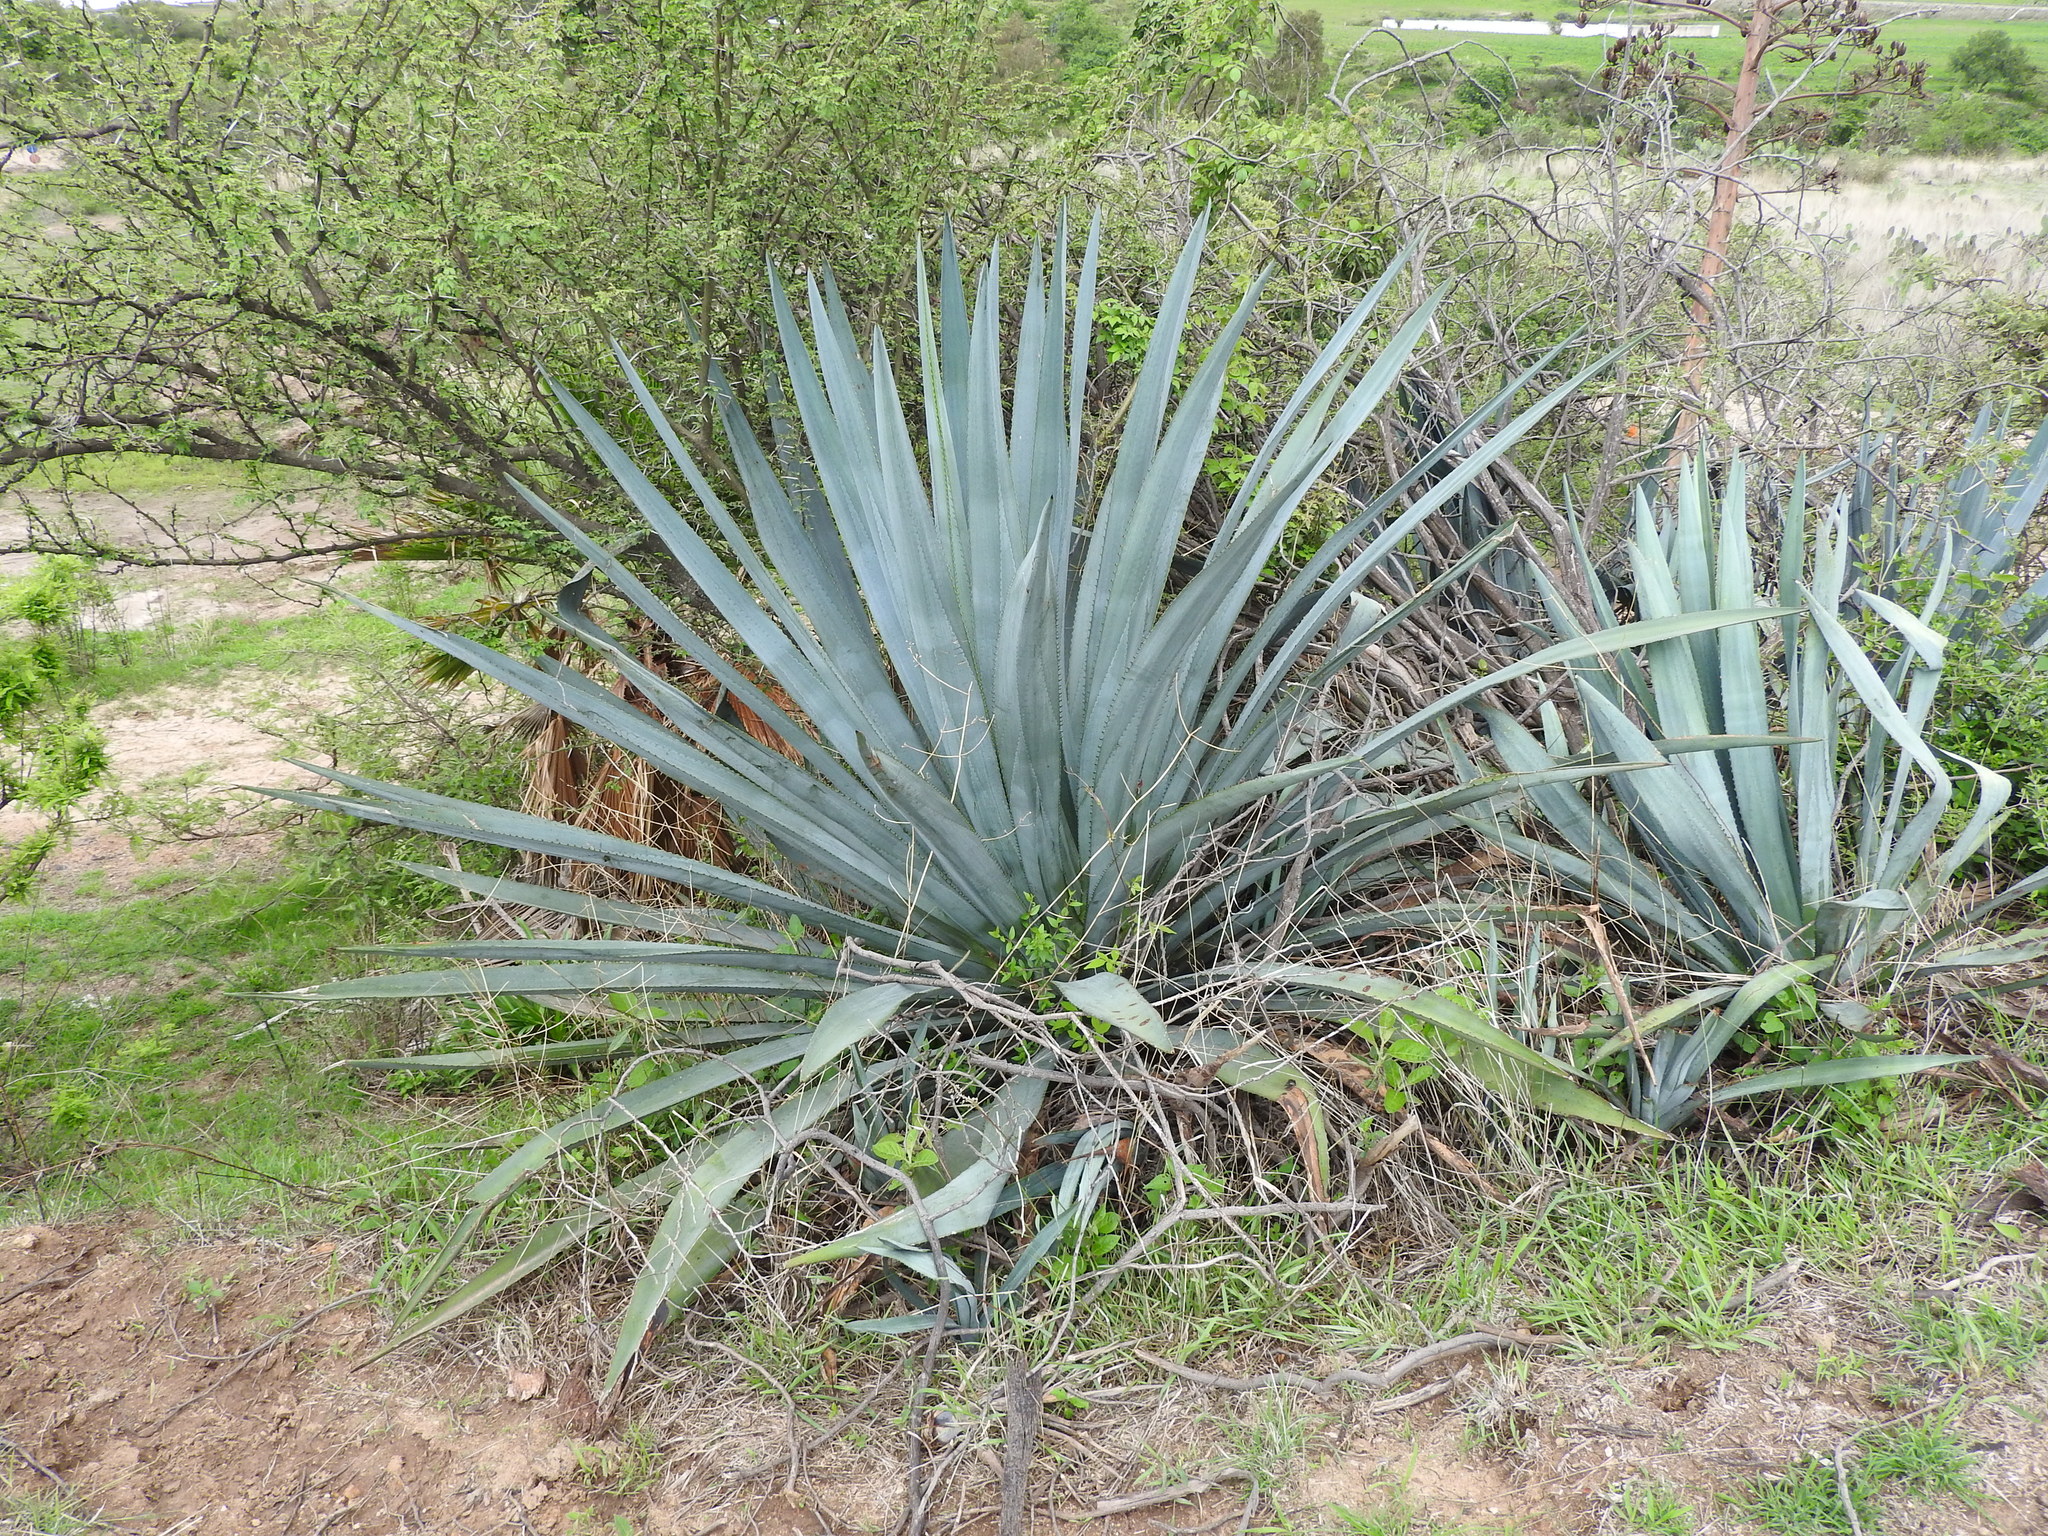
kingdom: Plantae
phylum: Tracheophyta
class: Liliopsida
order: Asparagales
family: Asparagaceae
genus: Agave
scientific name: Agave tequilana
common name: Tequila agave
